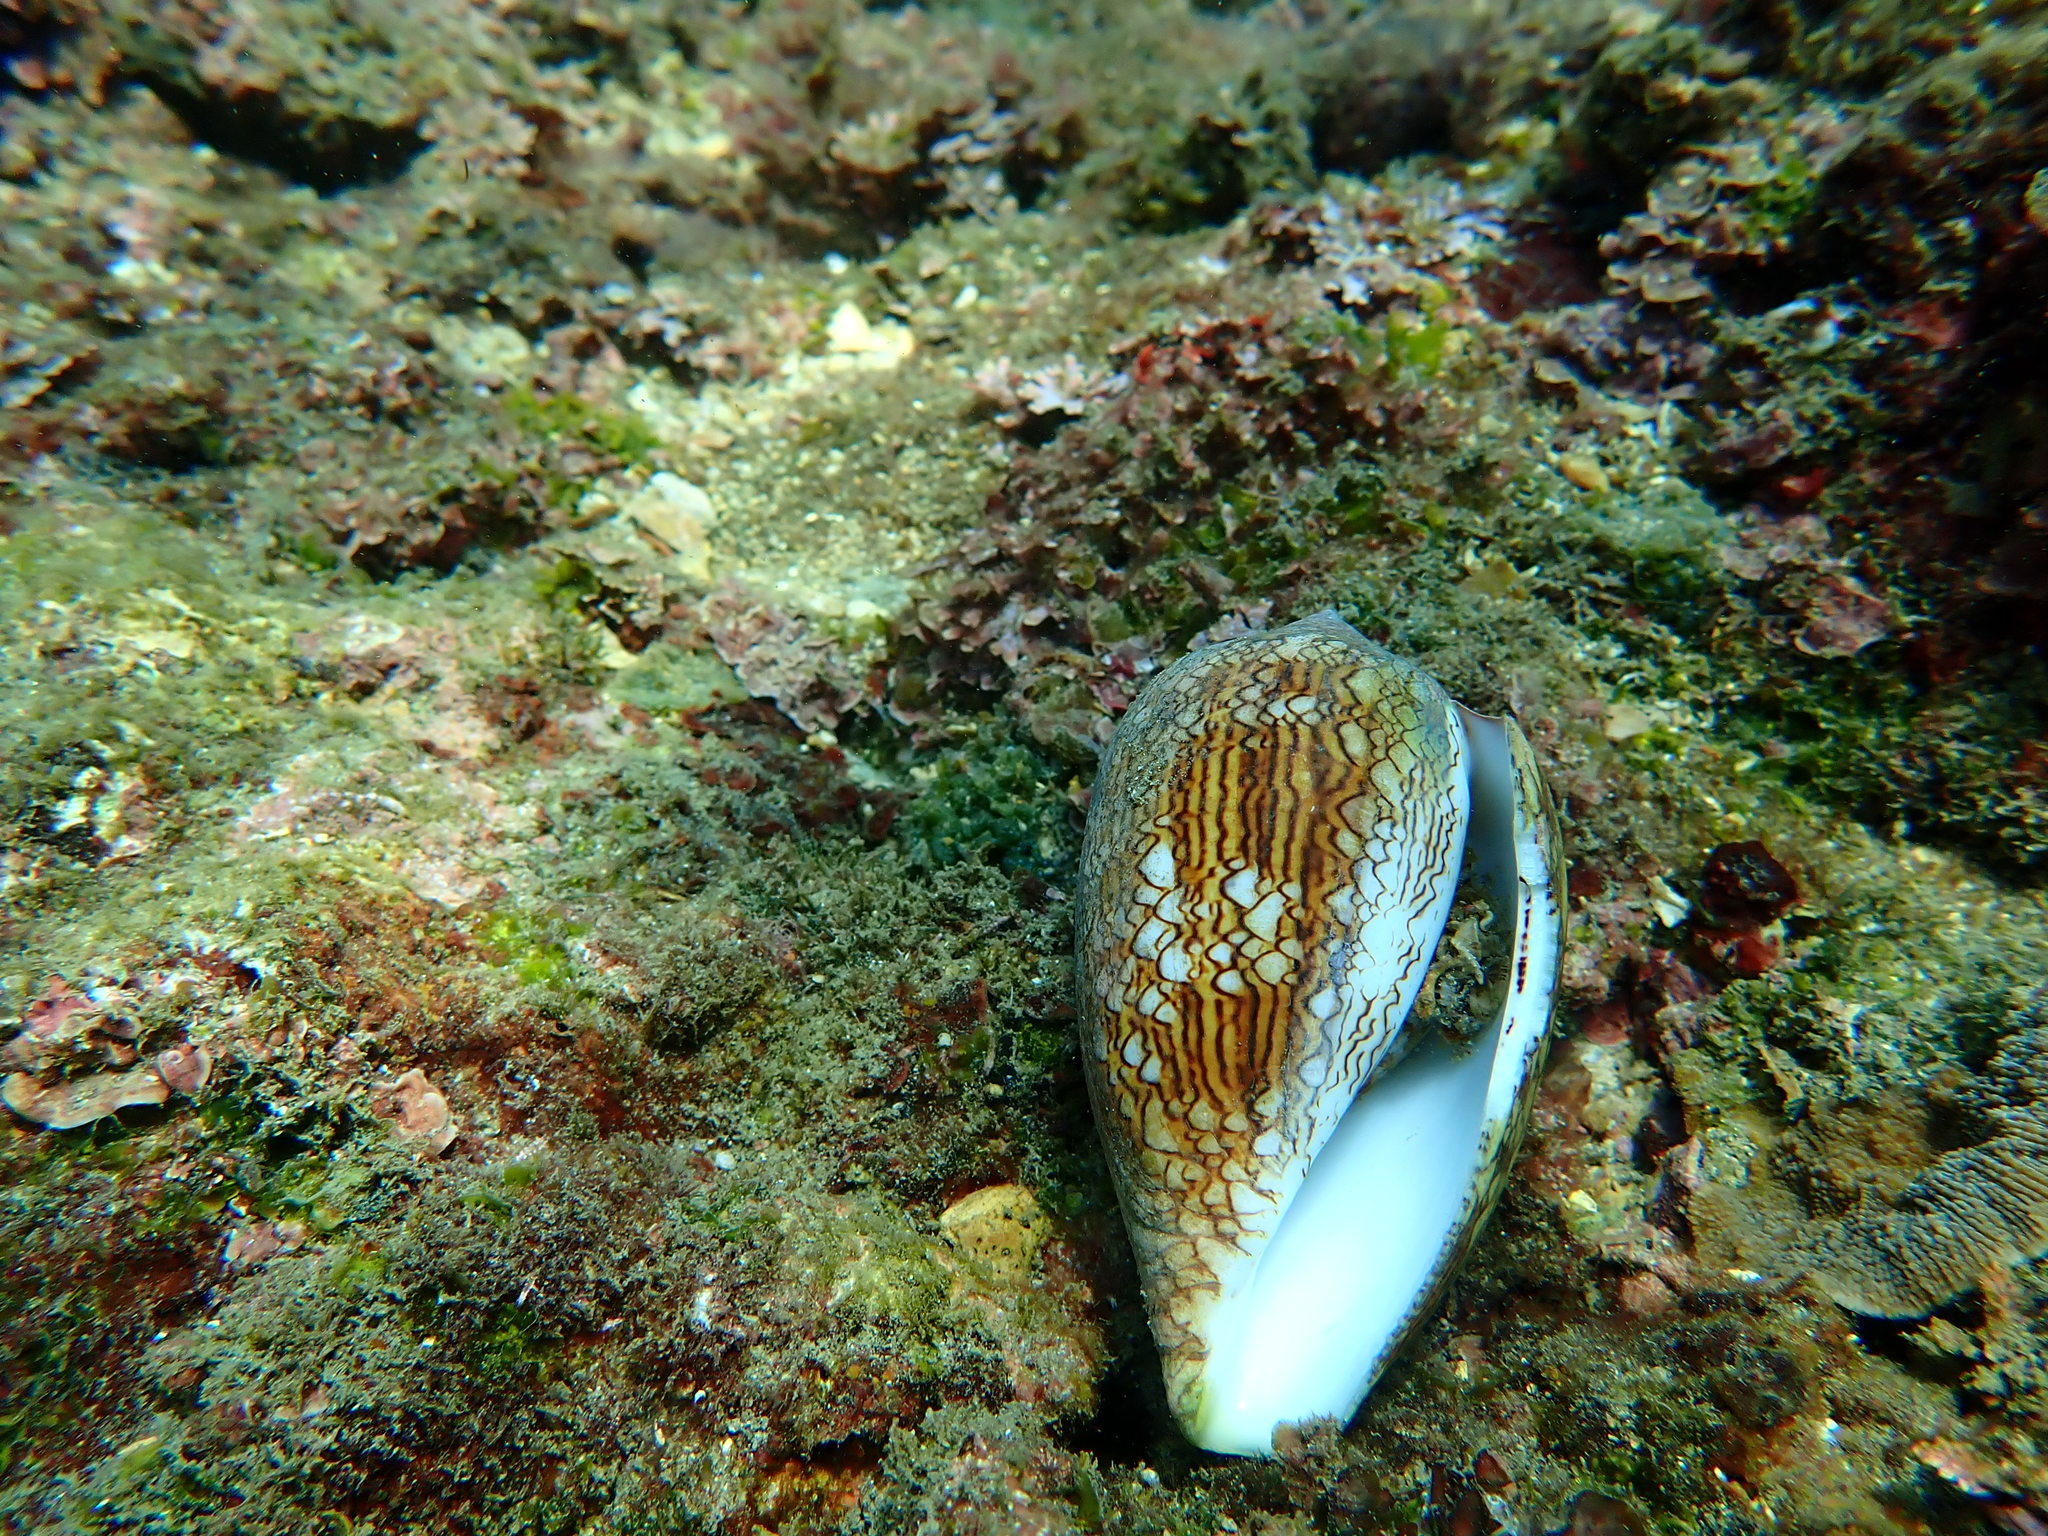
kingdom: Animalia
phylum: Mollusca
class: Gastropoda
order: Neogastropoda
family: Conidae
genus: Conus
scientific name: Conus textile
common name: Cloth-of-gold cone
